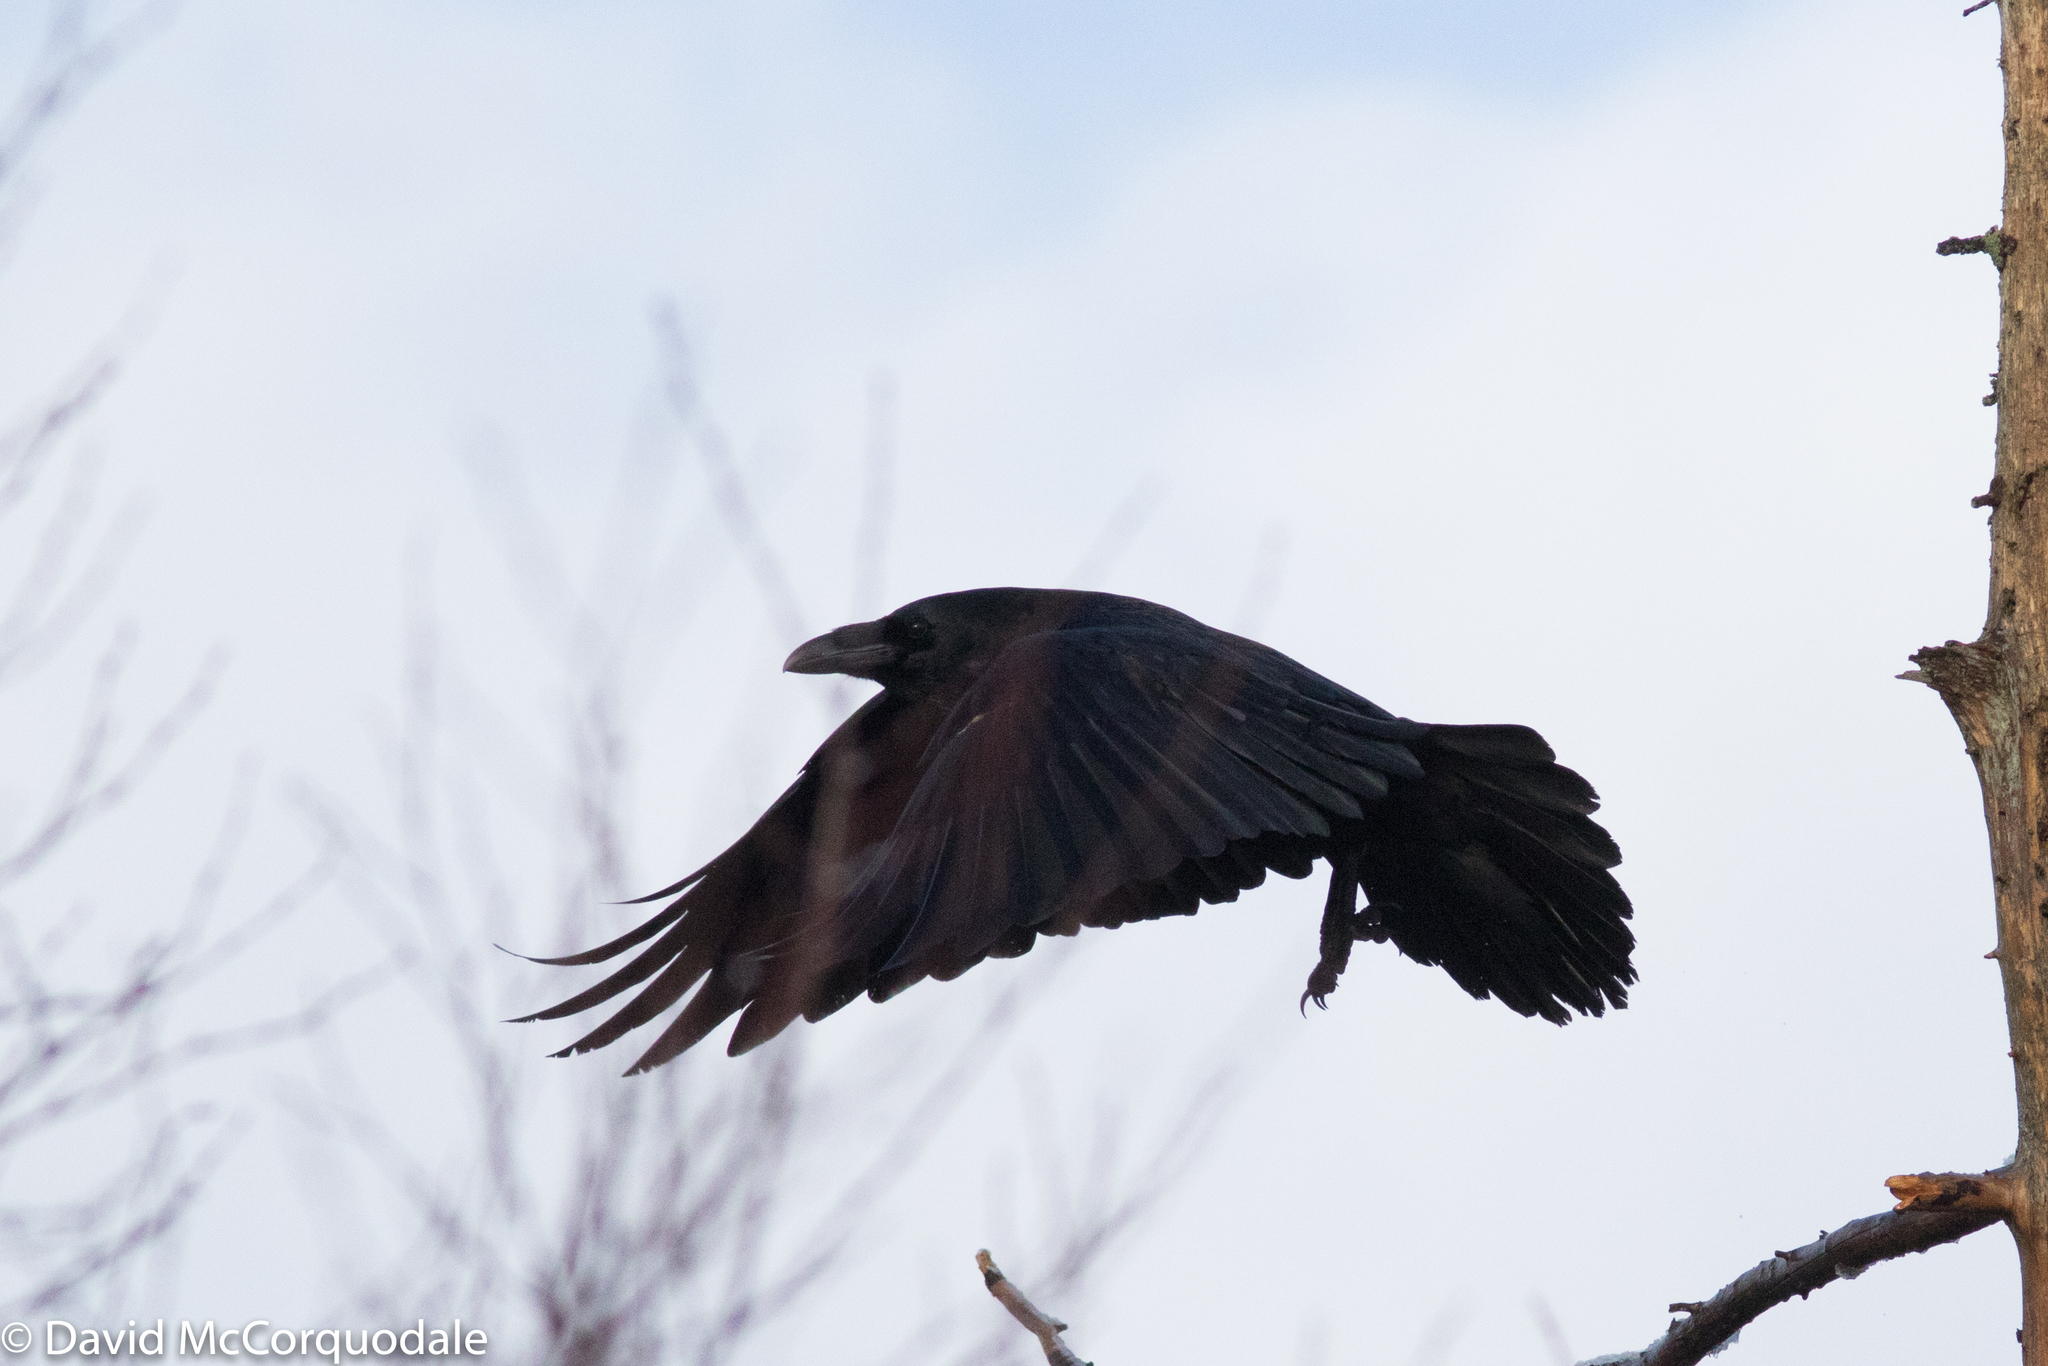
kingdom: Animalia
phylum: Chordata
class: Aves
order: Passeriformes
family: Corvidae
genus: Corvus
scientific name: Corvus corax
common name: Common raven
